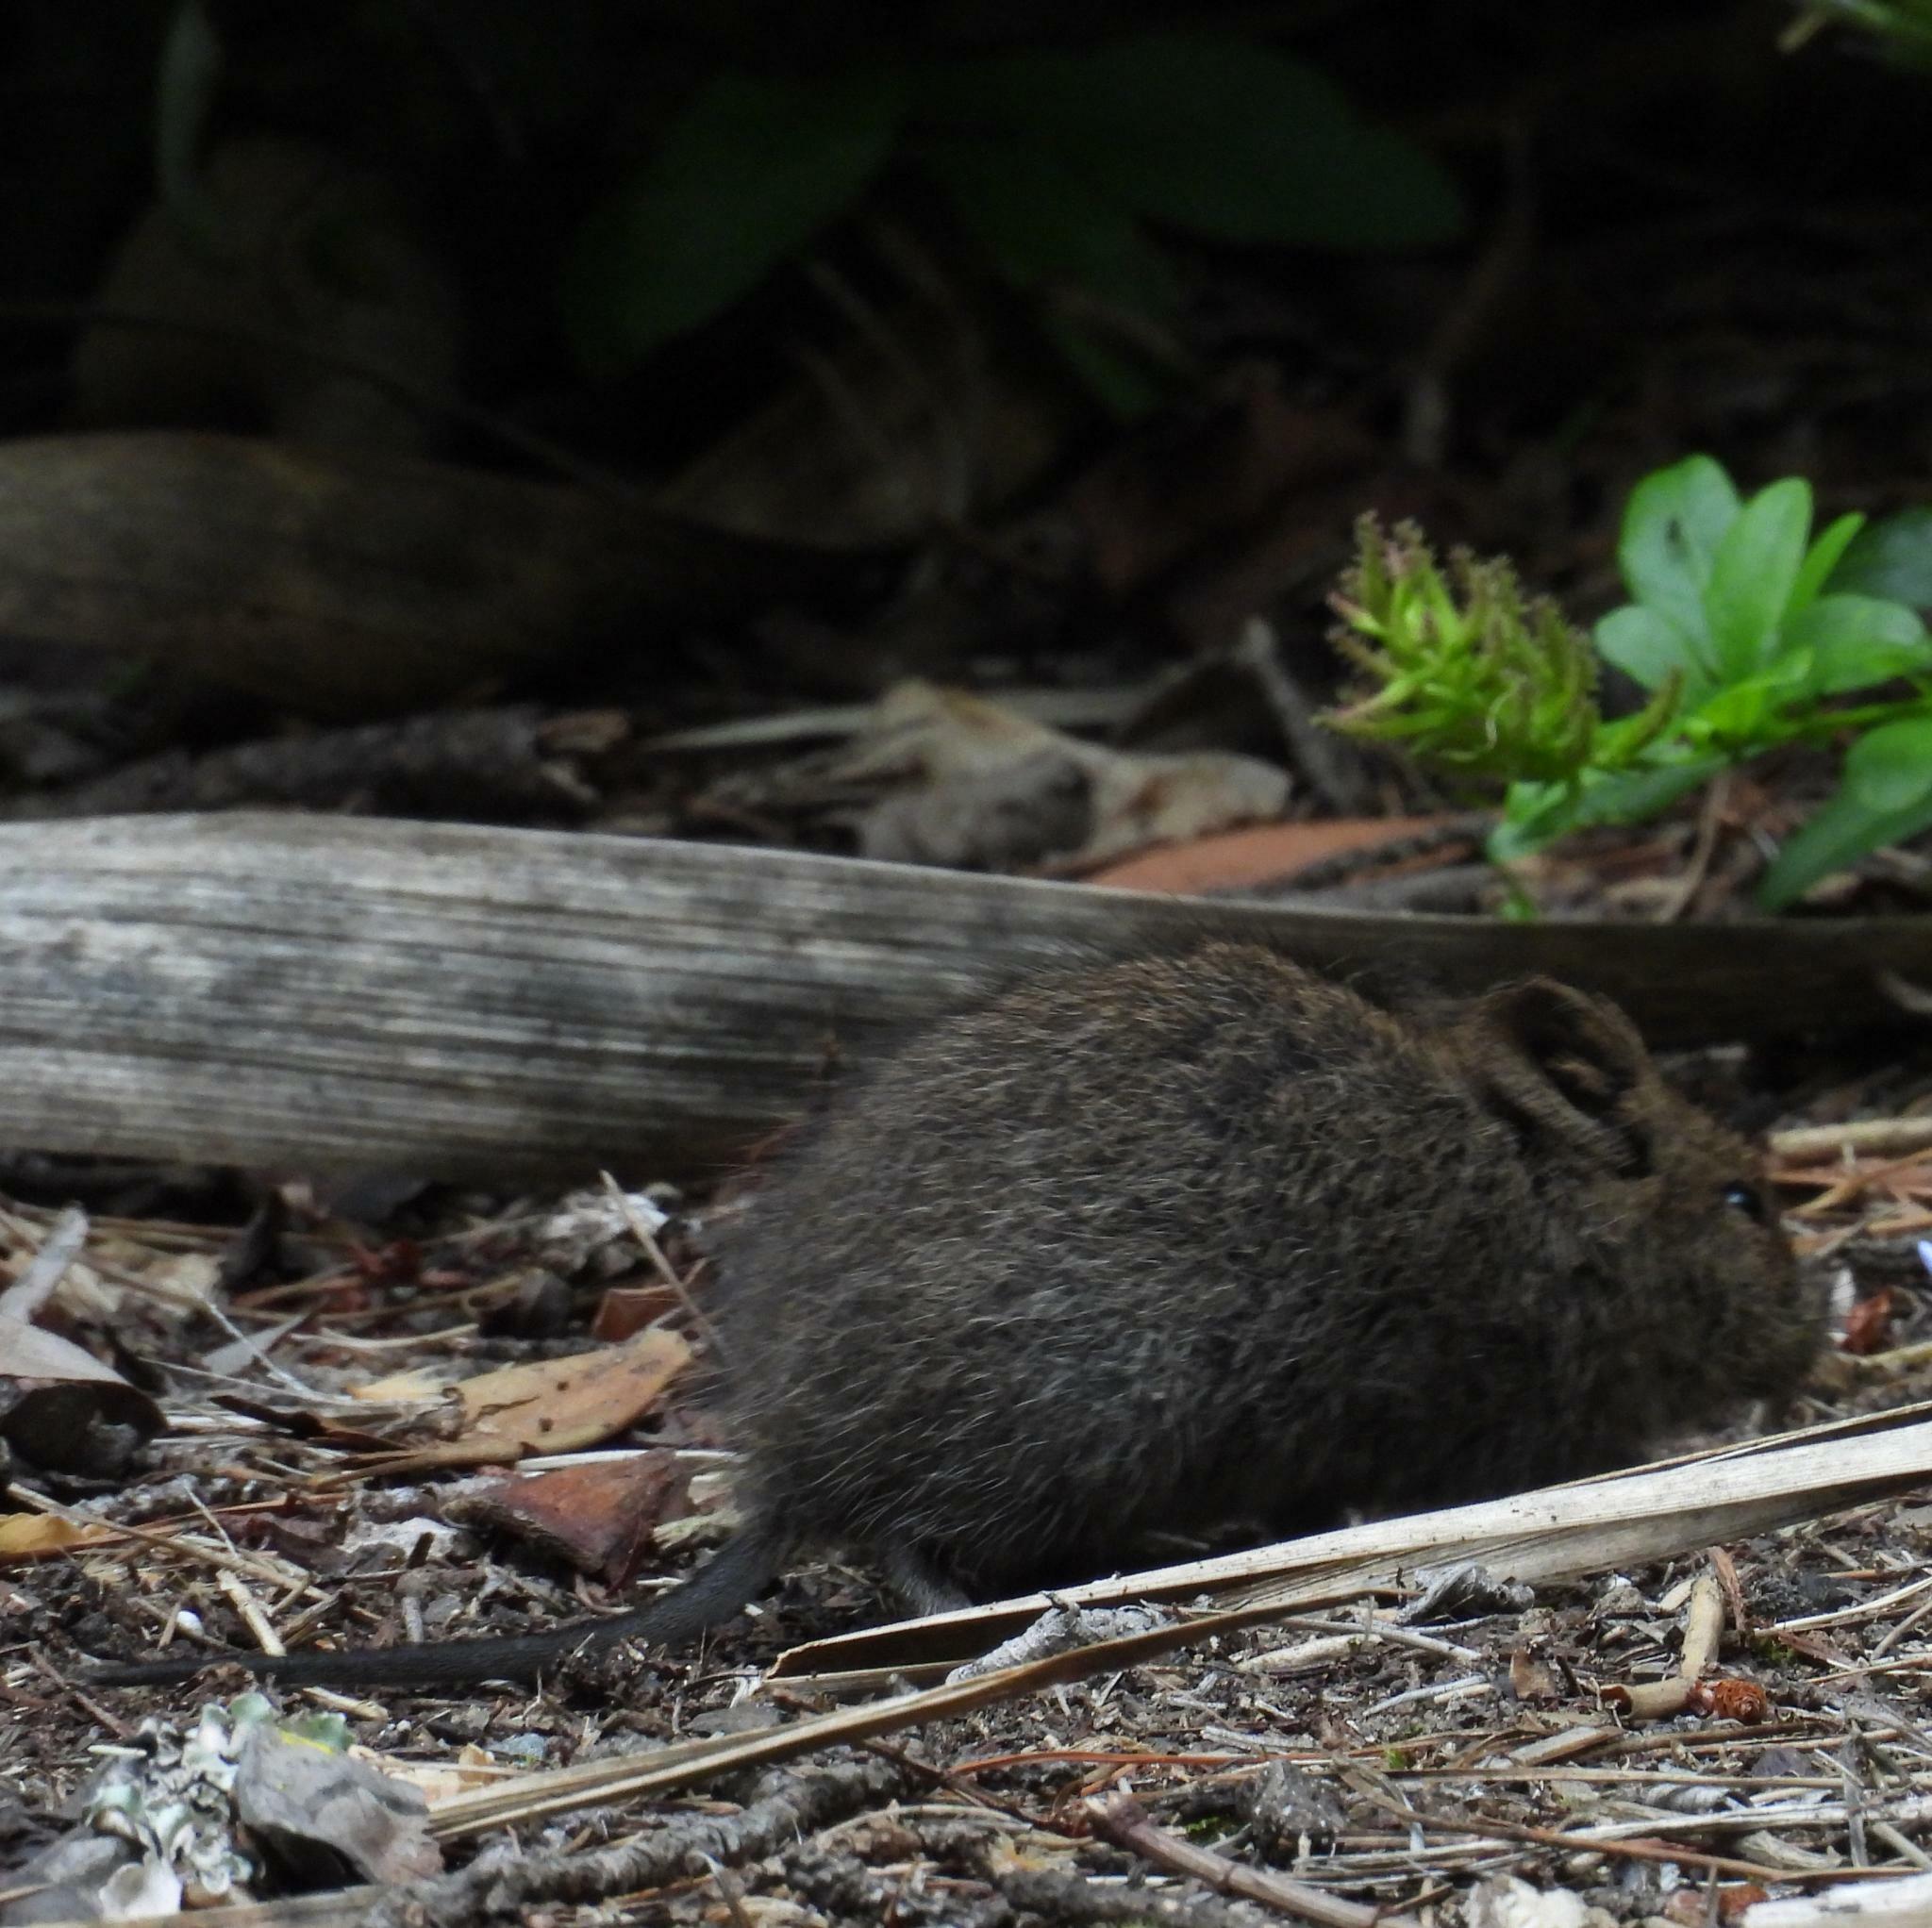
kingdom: Animalia
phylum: Chordata
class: Mammalia
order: Rodentia
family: Muridae
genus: Otomys
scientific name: Otomys irroratus
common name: Southern african vlei rat
